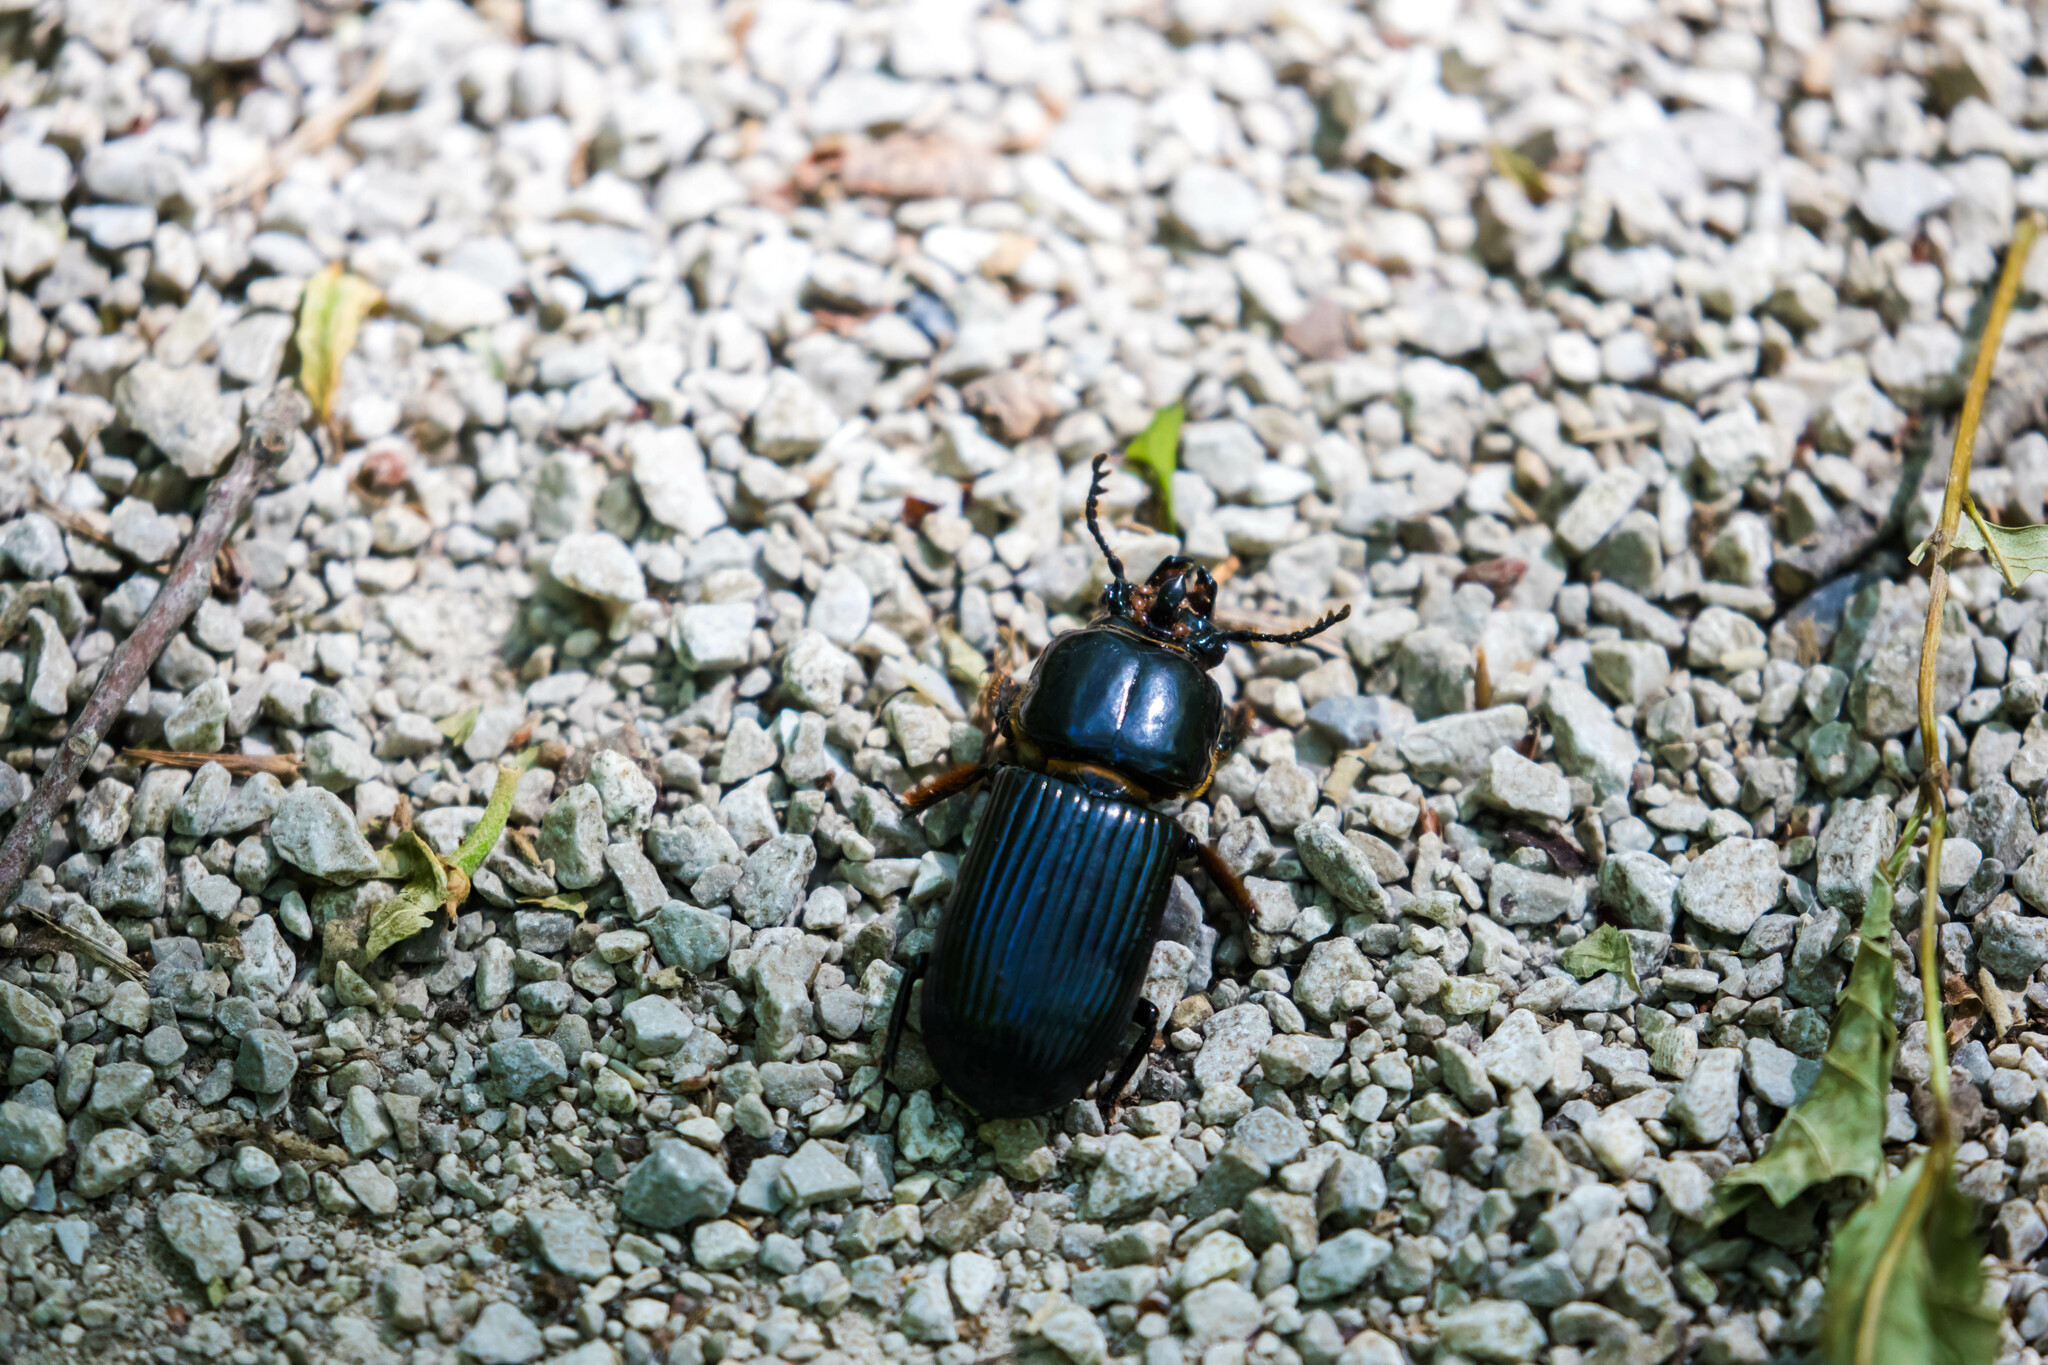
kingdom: Animalia
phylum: Arthropoda
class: Insecta
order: Coleoptera
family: Passalidae
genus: Odontotaenius
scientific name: Odontotaenius disjunctus
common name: Patent leather beetle
